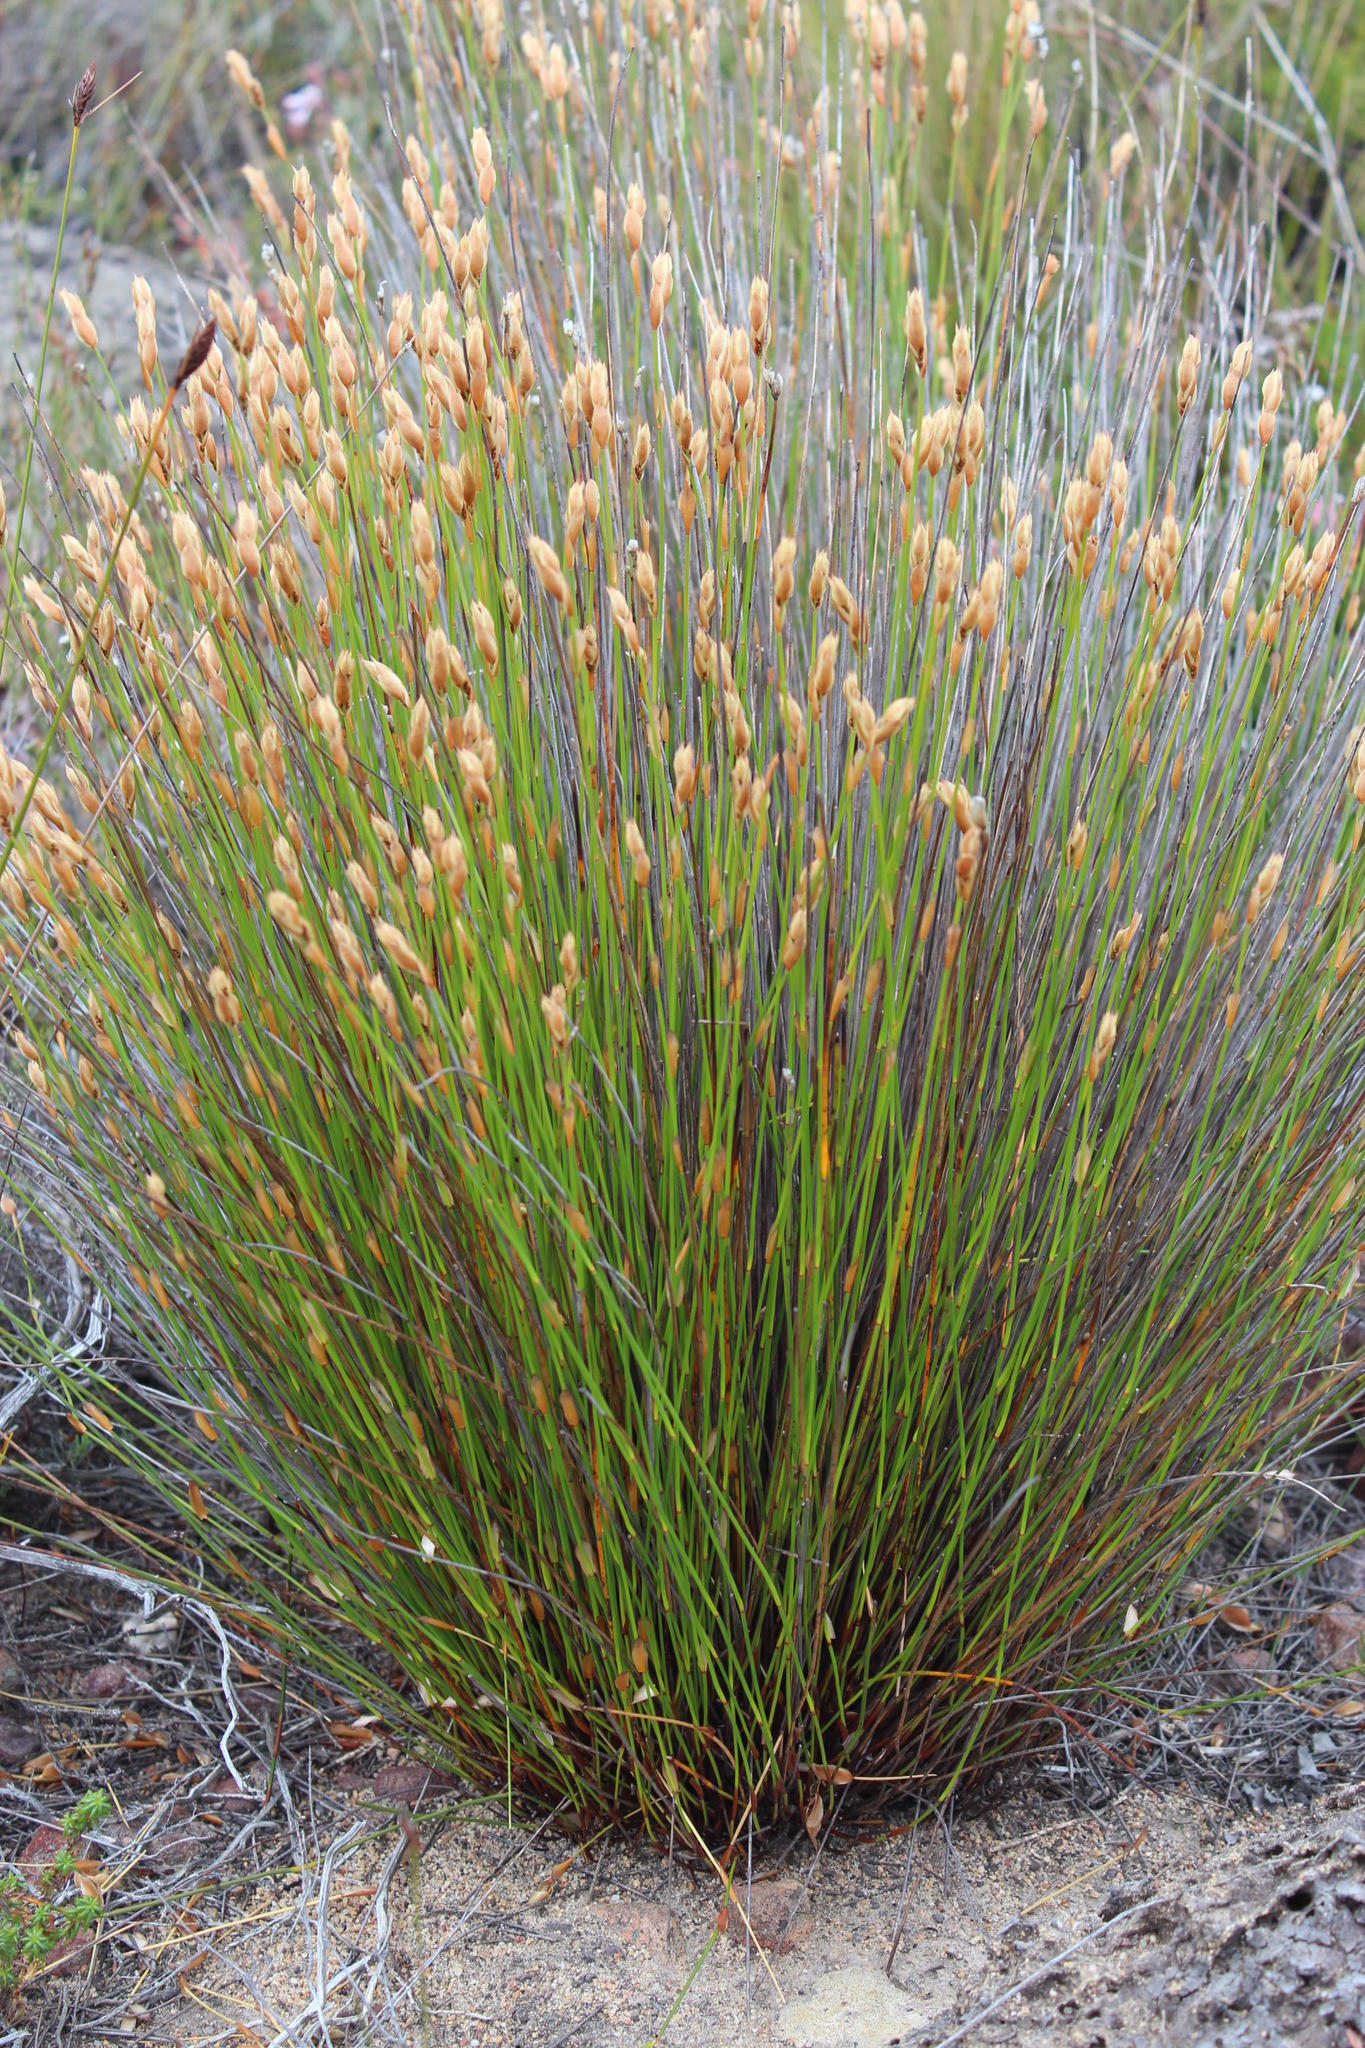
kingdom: Plantae
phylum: Tracheophyta
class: Liliopsida
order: Poales
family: Restionaceae
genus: Elegia
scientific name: Elegia juncea
